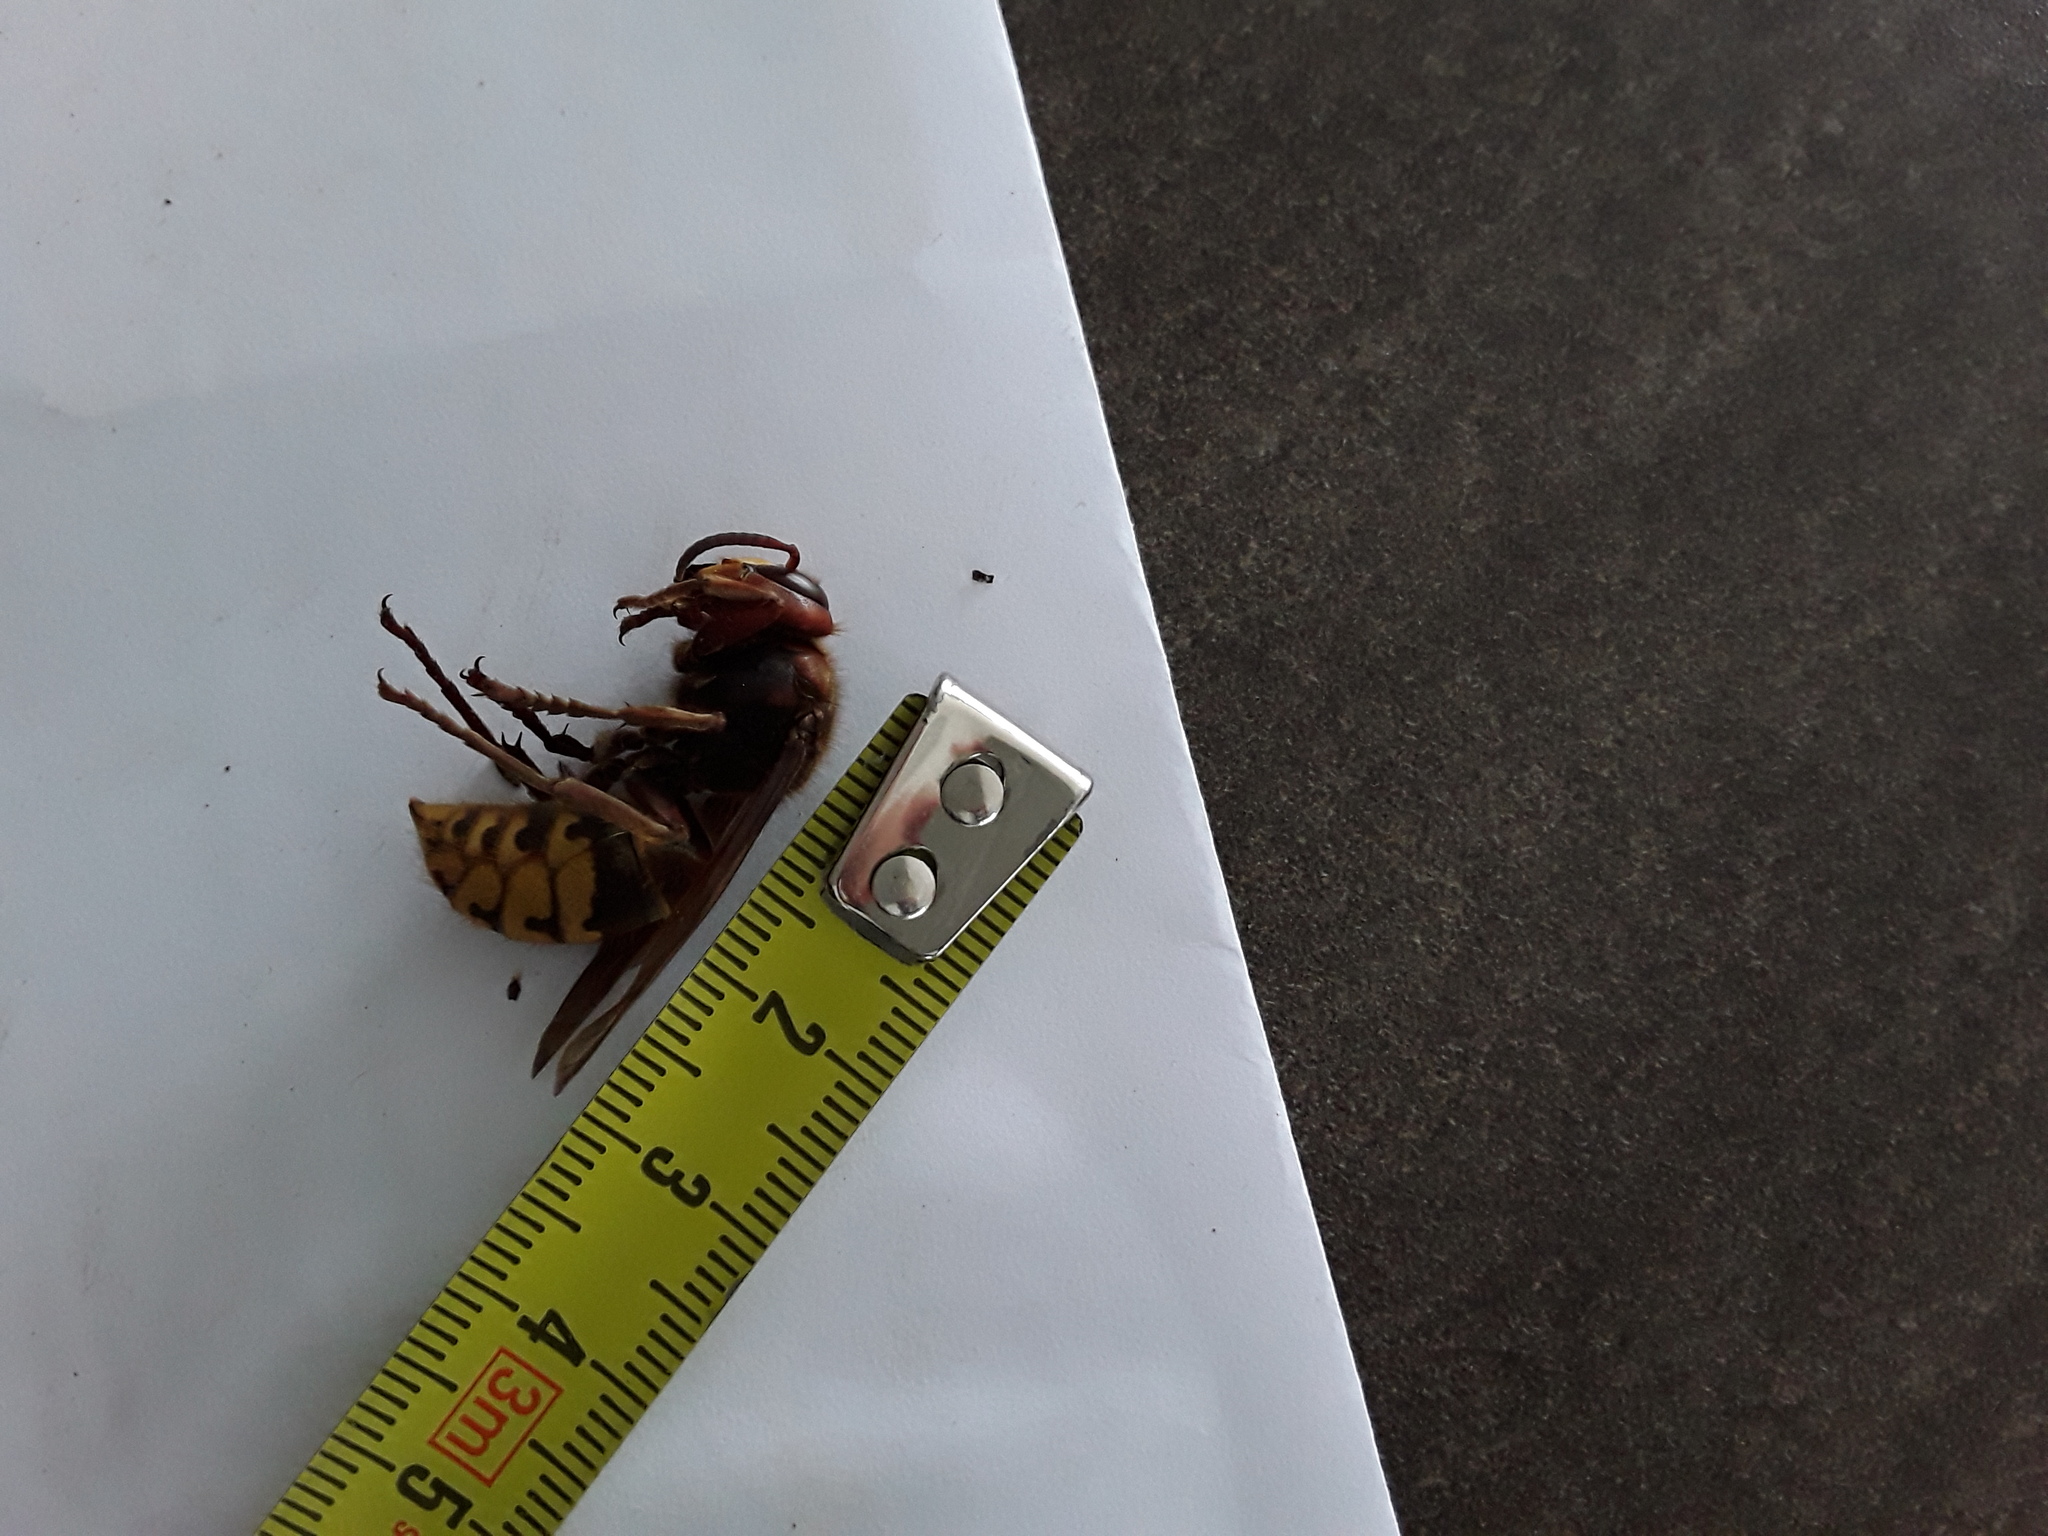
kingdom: Animalia
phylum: Arthropoda
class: Insecta
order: Hymenoptera
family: Vespidae
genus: Vespa
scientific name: Vespa crabro
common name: Hornet
